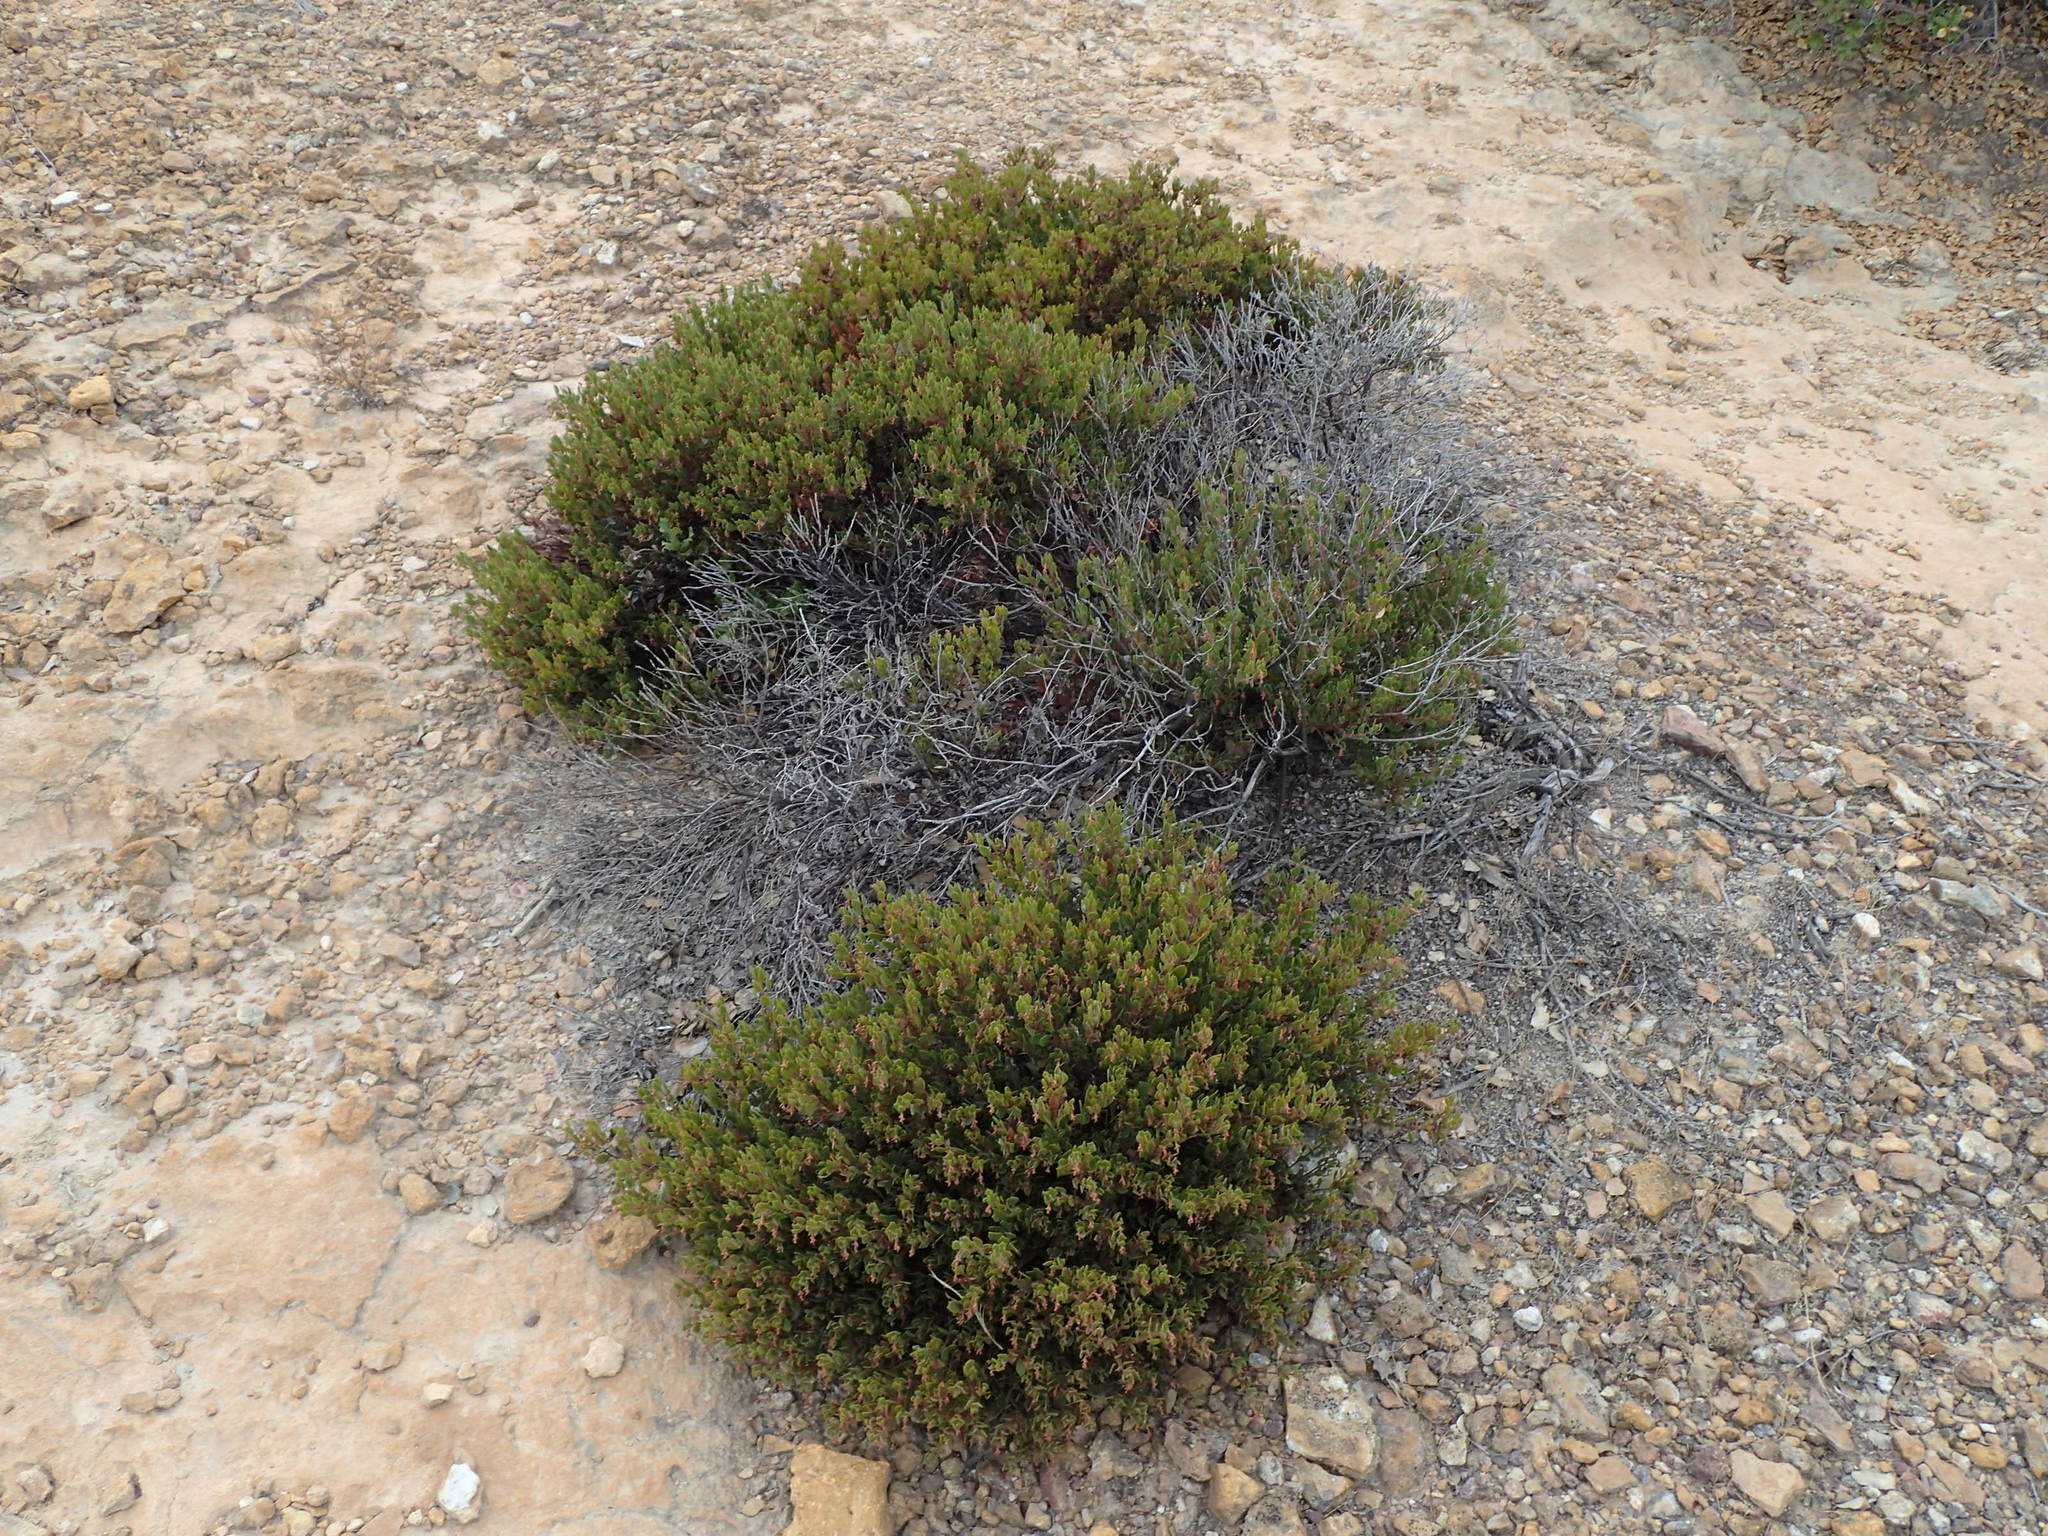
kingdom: Plantae
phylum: Tracheophyta
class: Magnoliopsida
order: Ericales
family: Ericaceae
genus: Arctostaphylos
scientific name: Arctostaphylos myrtifolia
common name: Ione manzanita
